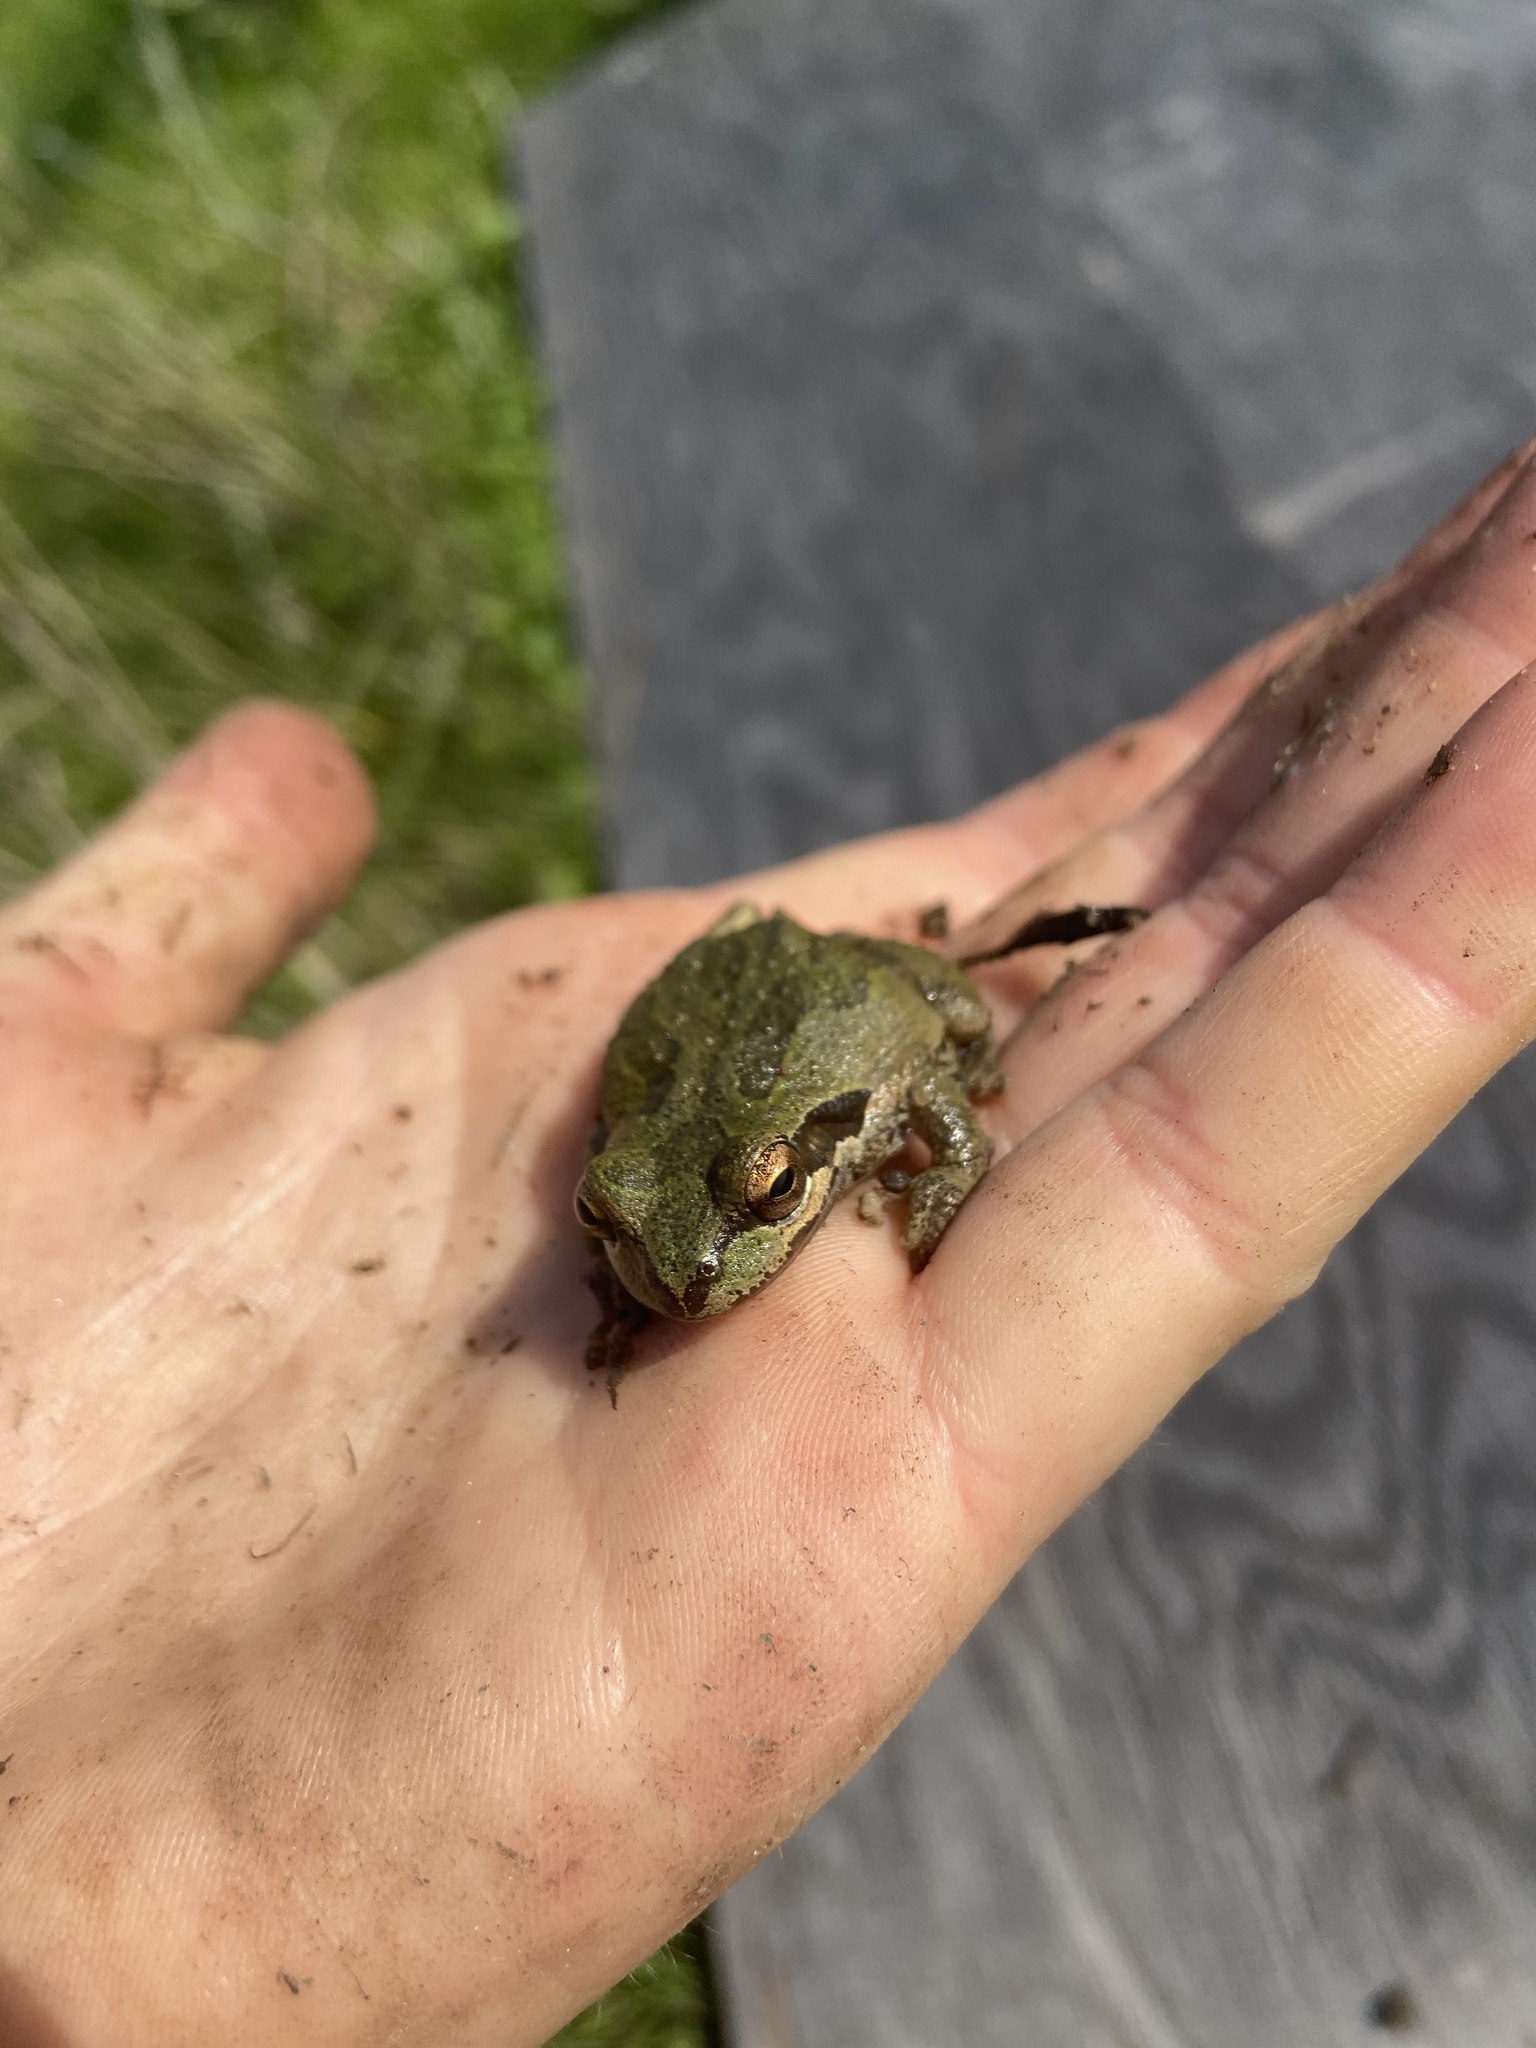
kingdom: Animalia
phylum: Chordata
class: Amphibia
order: Anura
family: Hylidae
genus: Pseudacris
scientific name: Pseudacris regilla
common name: Pacific chorus frog
